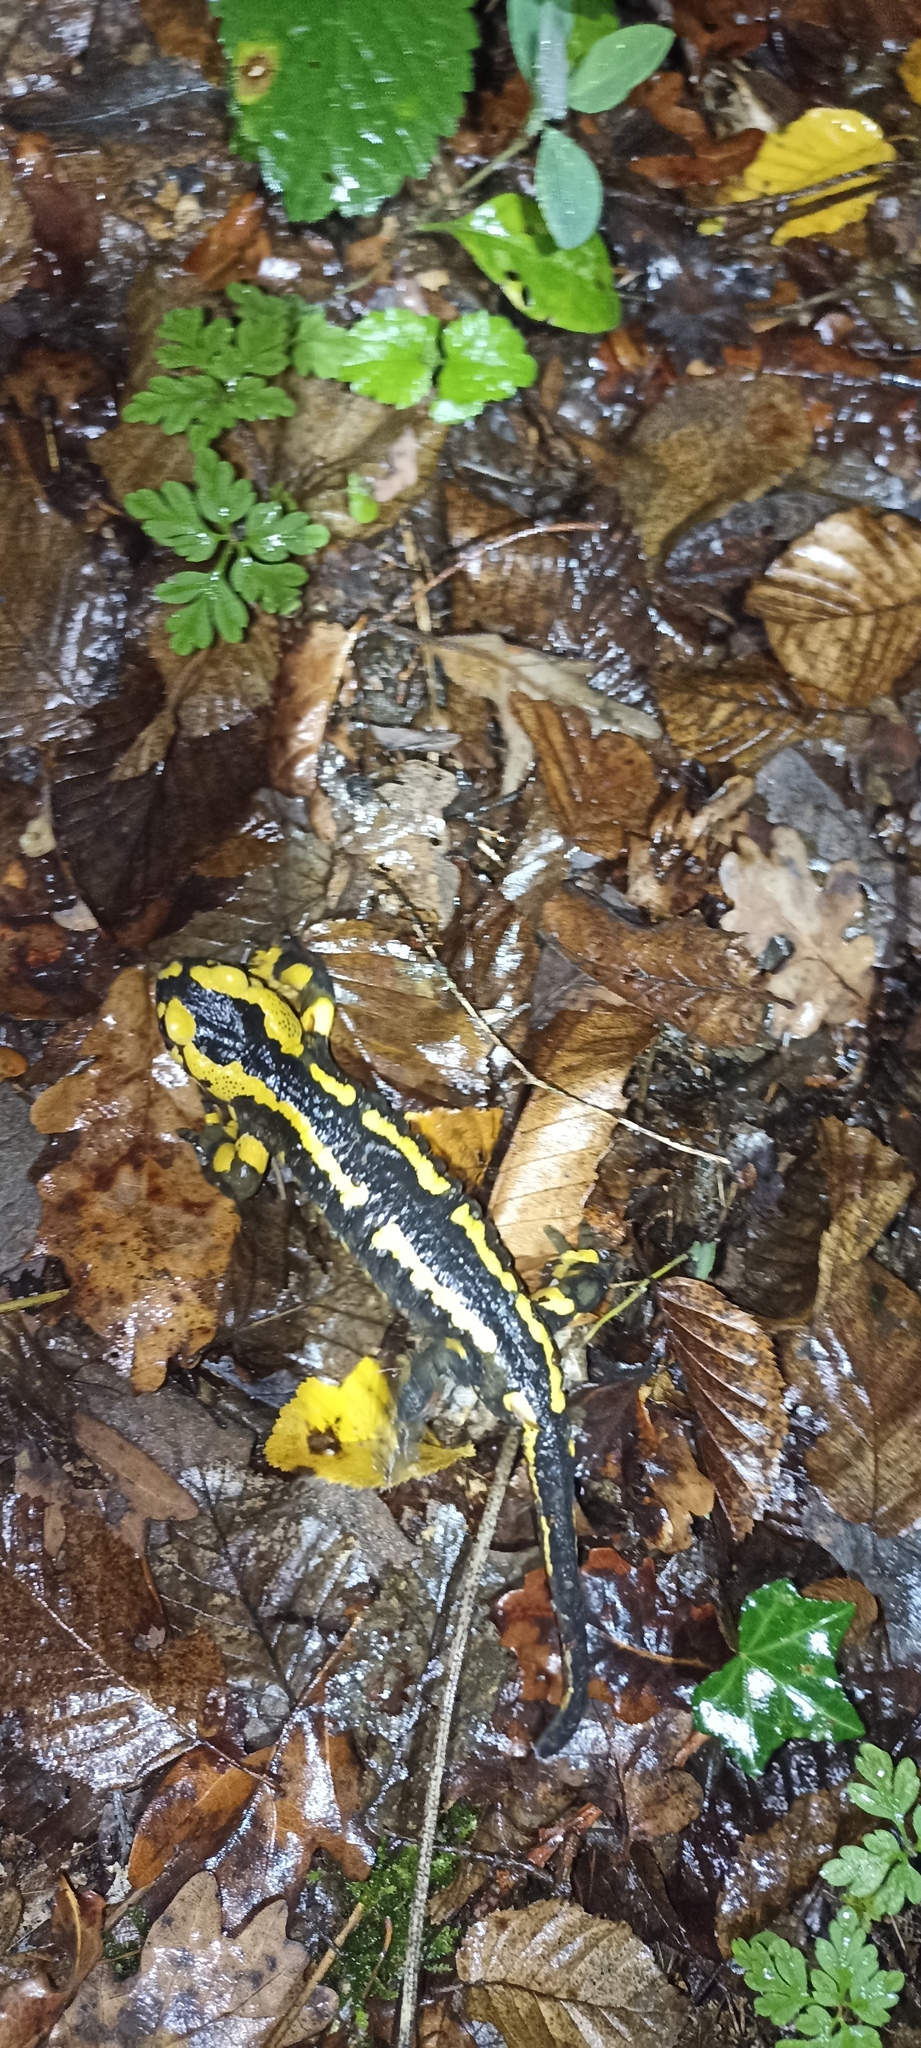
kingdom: Animalia
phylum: Chordata
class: Amphibia
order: Caudata
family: Salamandridae
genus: Salamandra
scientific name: Salamandra salamandra
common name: Fire salamander
